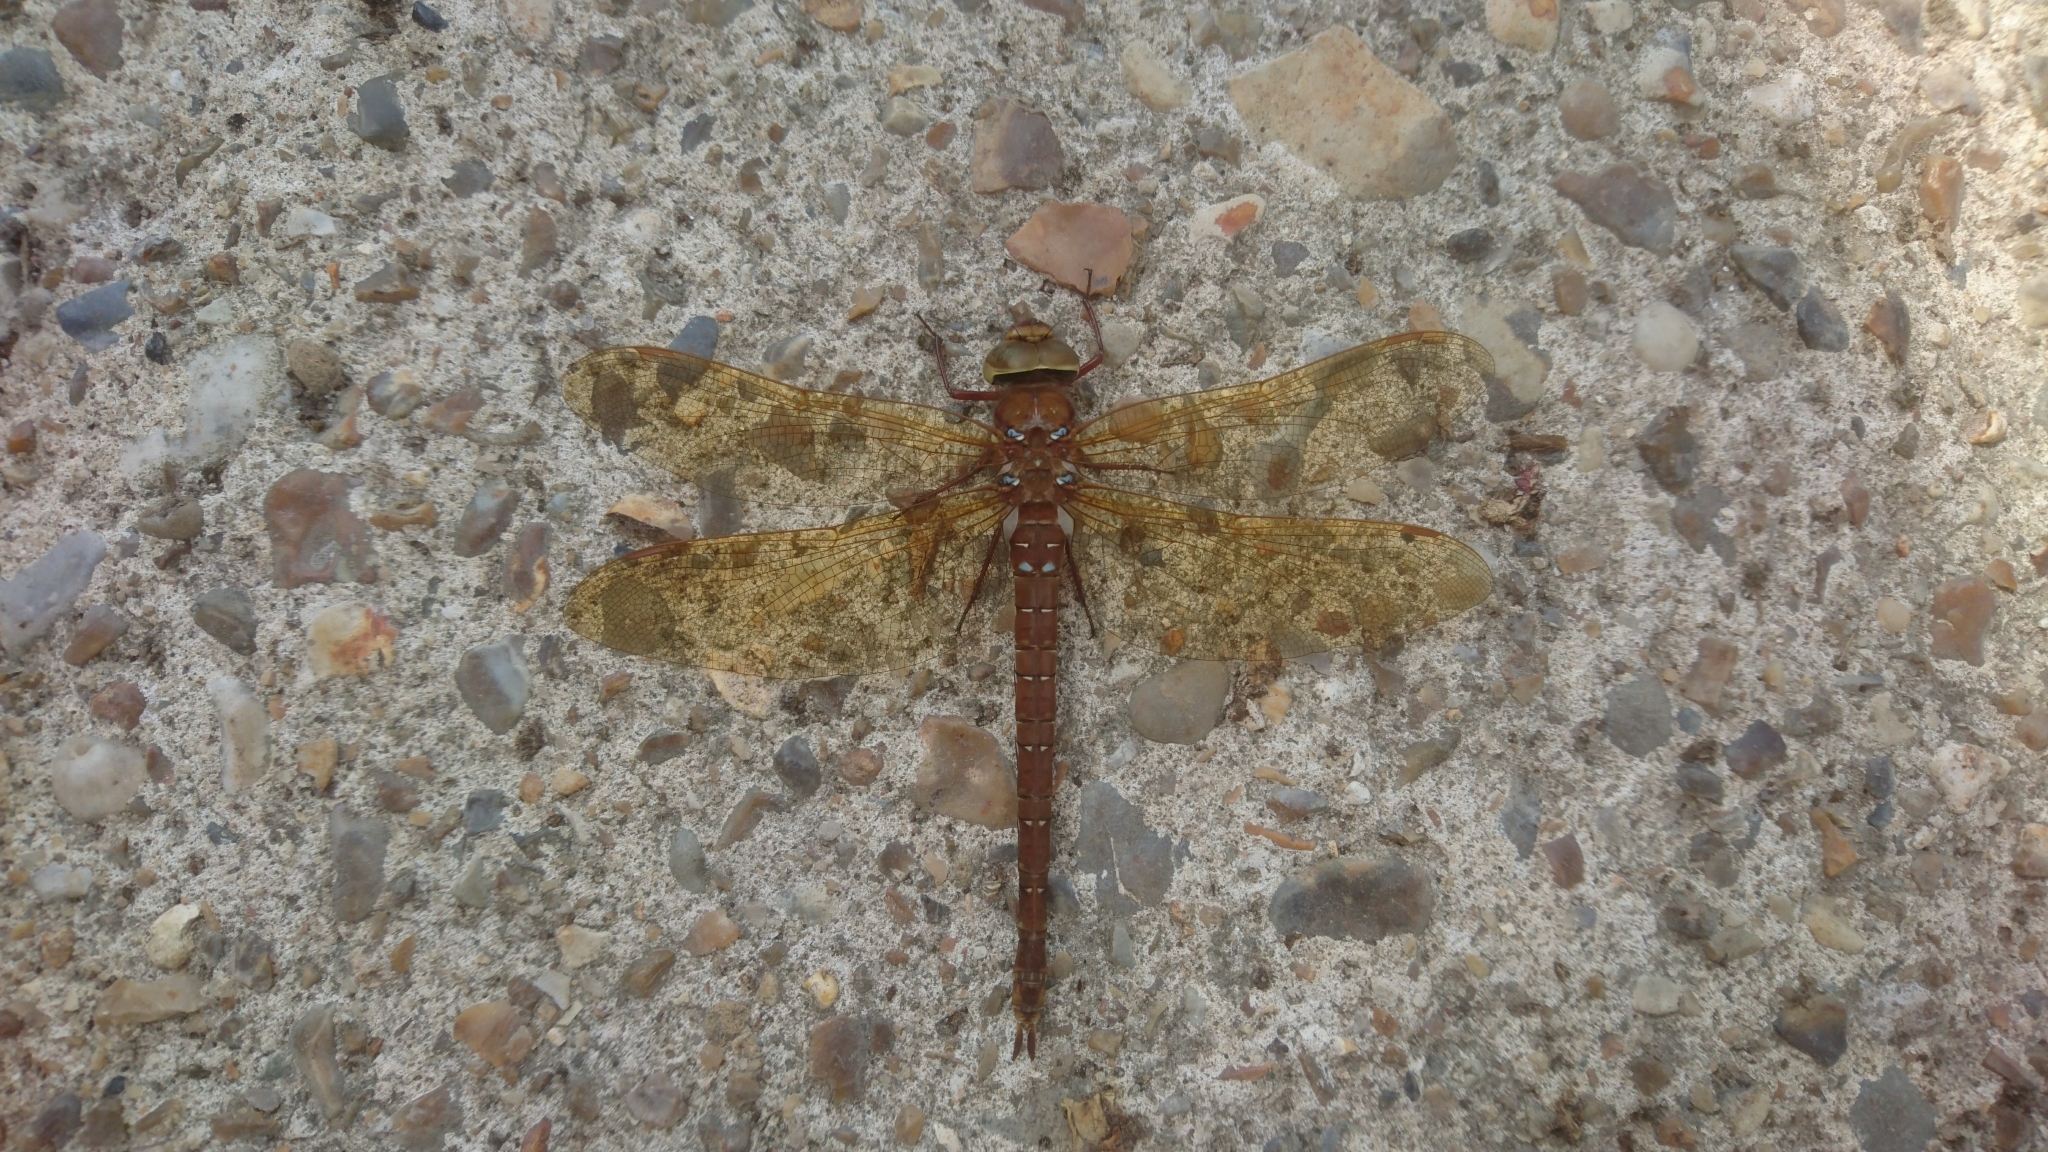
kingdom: Animalia
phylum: Arthropoda
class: Insecta
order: Odonata
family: Aeshnidae
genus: Aeshna
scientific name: Aeshna grandis
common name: Brown hawker
